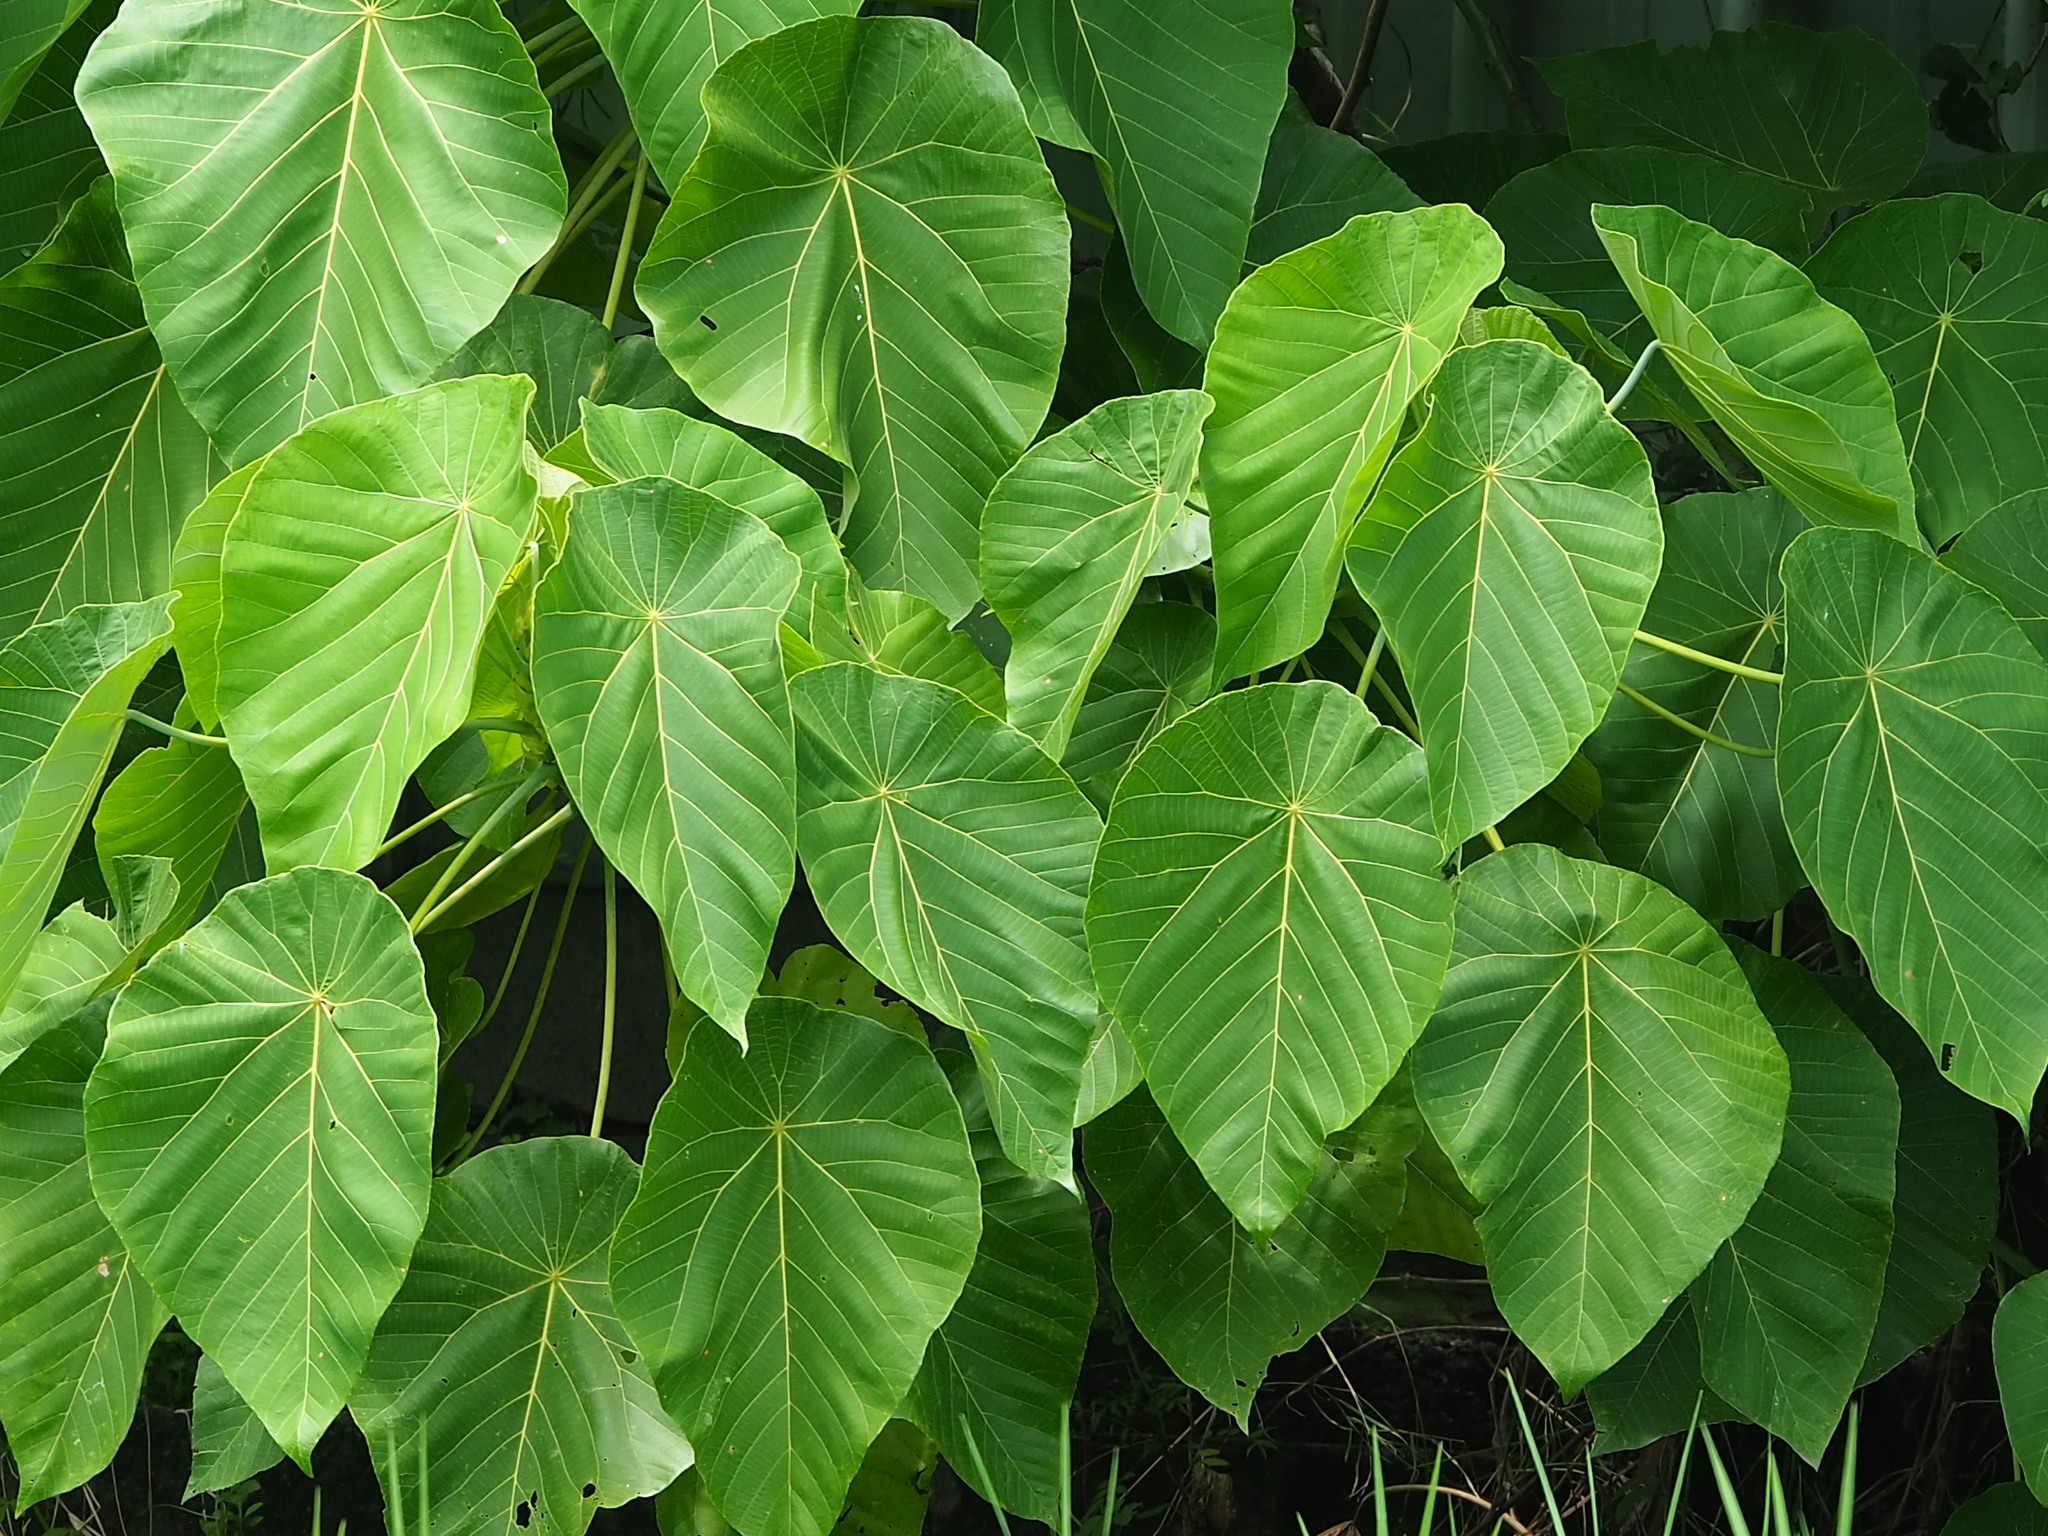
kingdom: Plantae
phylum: Tracheophyta
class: Magnoliopsida
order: Malpighiales
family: Euphorbiaceae
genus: Macaranga
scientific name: Macaranga tanarius
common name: Parasol leaf tree
